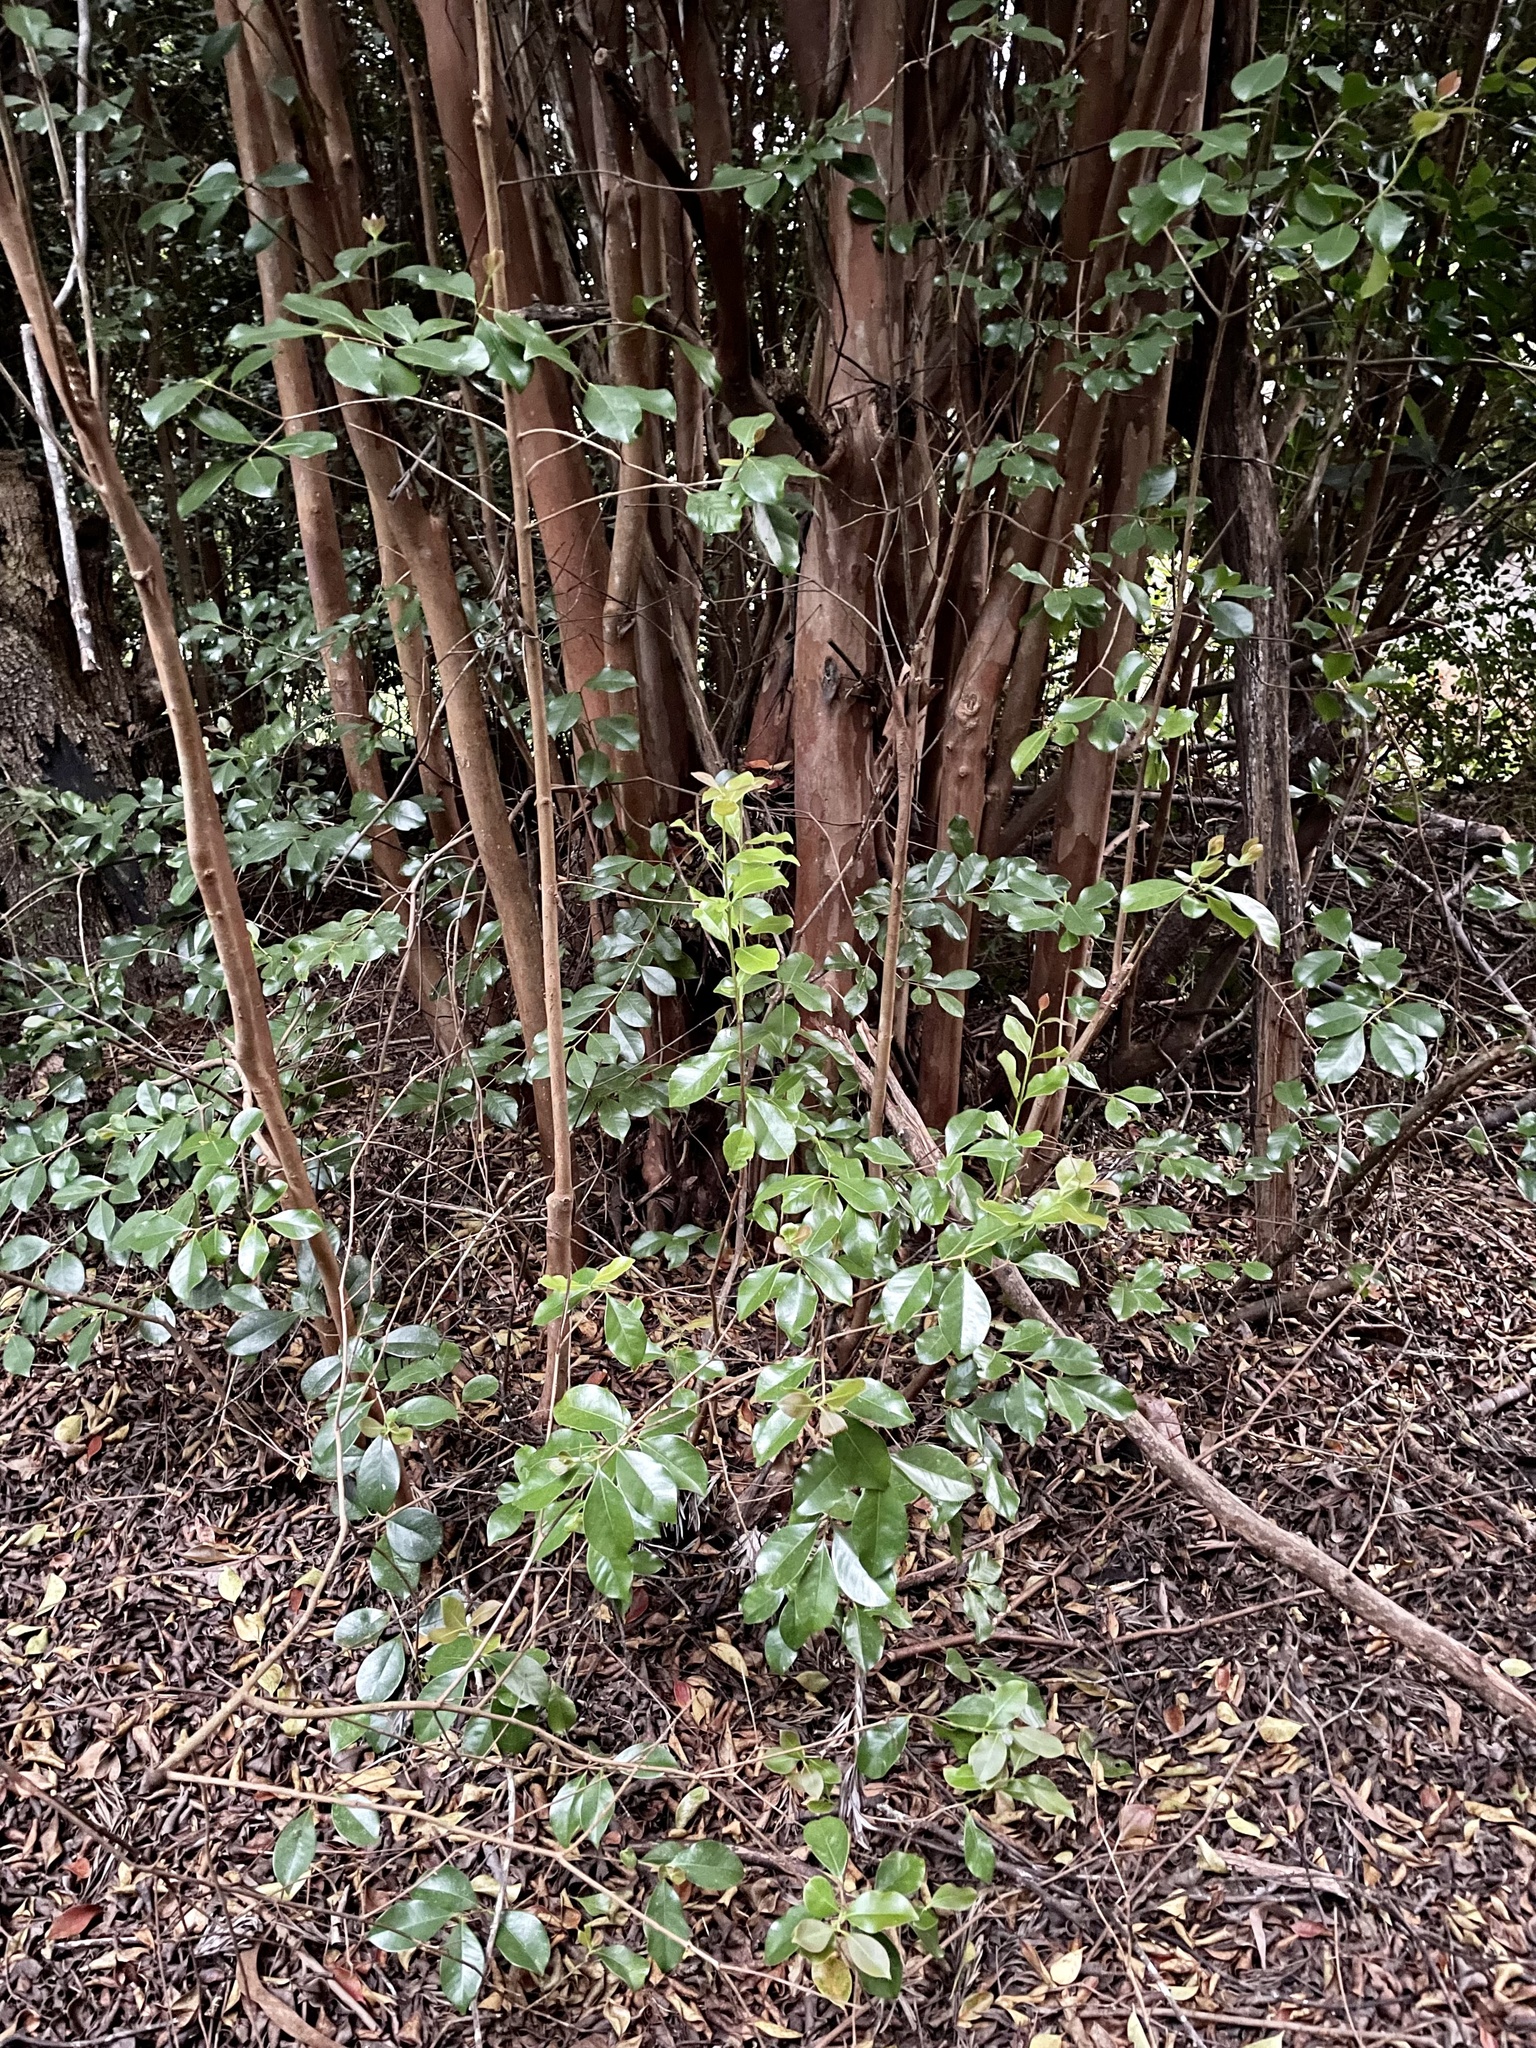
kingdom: Plantae
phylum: Tracheophyta
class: Magnoliopsida
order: Myrtales
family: Myrtaceae
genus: Psidium
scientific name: Psidium cattleianum
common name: Strawberry guava
